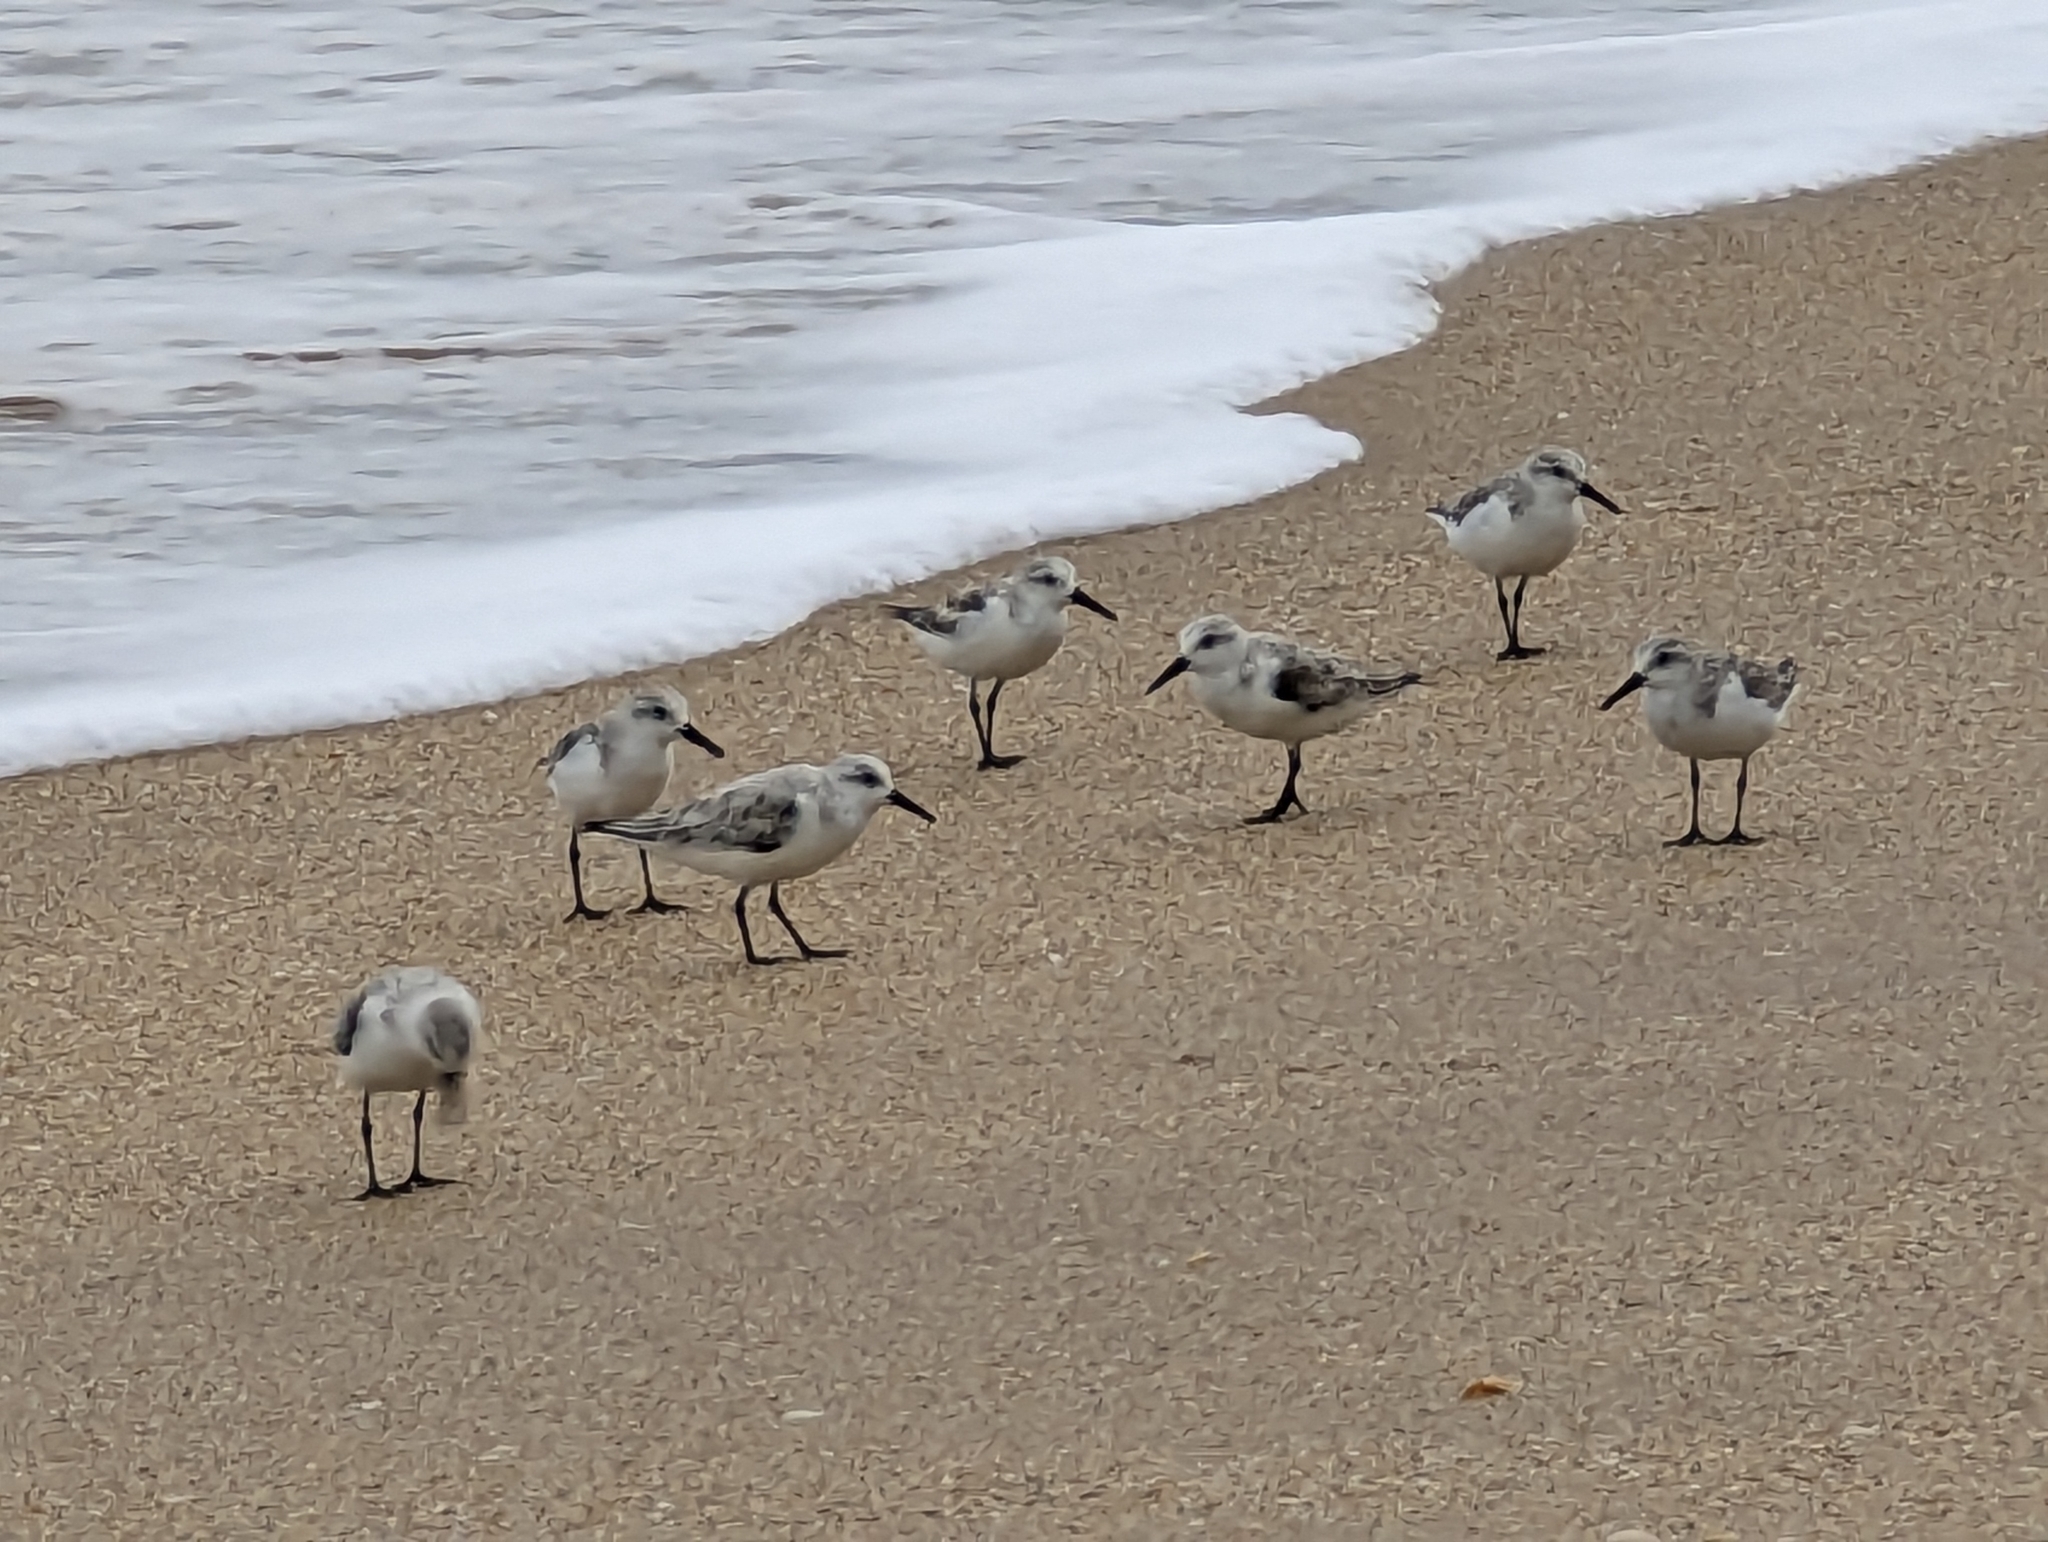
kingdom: Animalia
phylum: Chordata
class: Aves
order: Charadriiformes
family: Scolopacidae
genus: Calidris
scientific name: Calidris alba
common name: Sanderling
